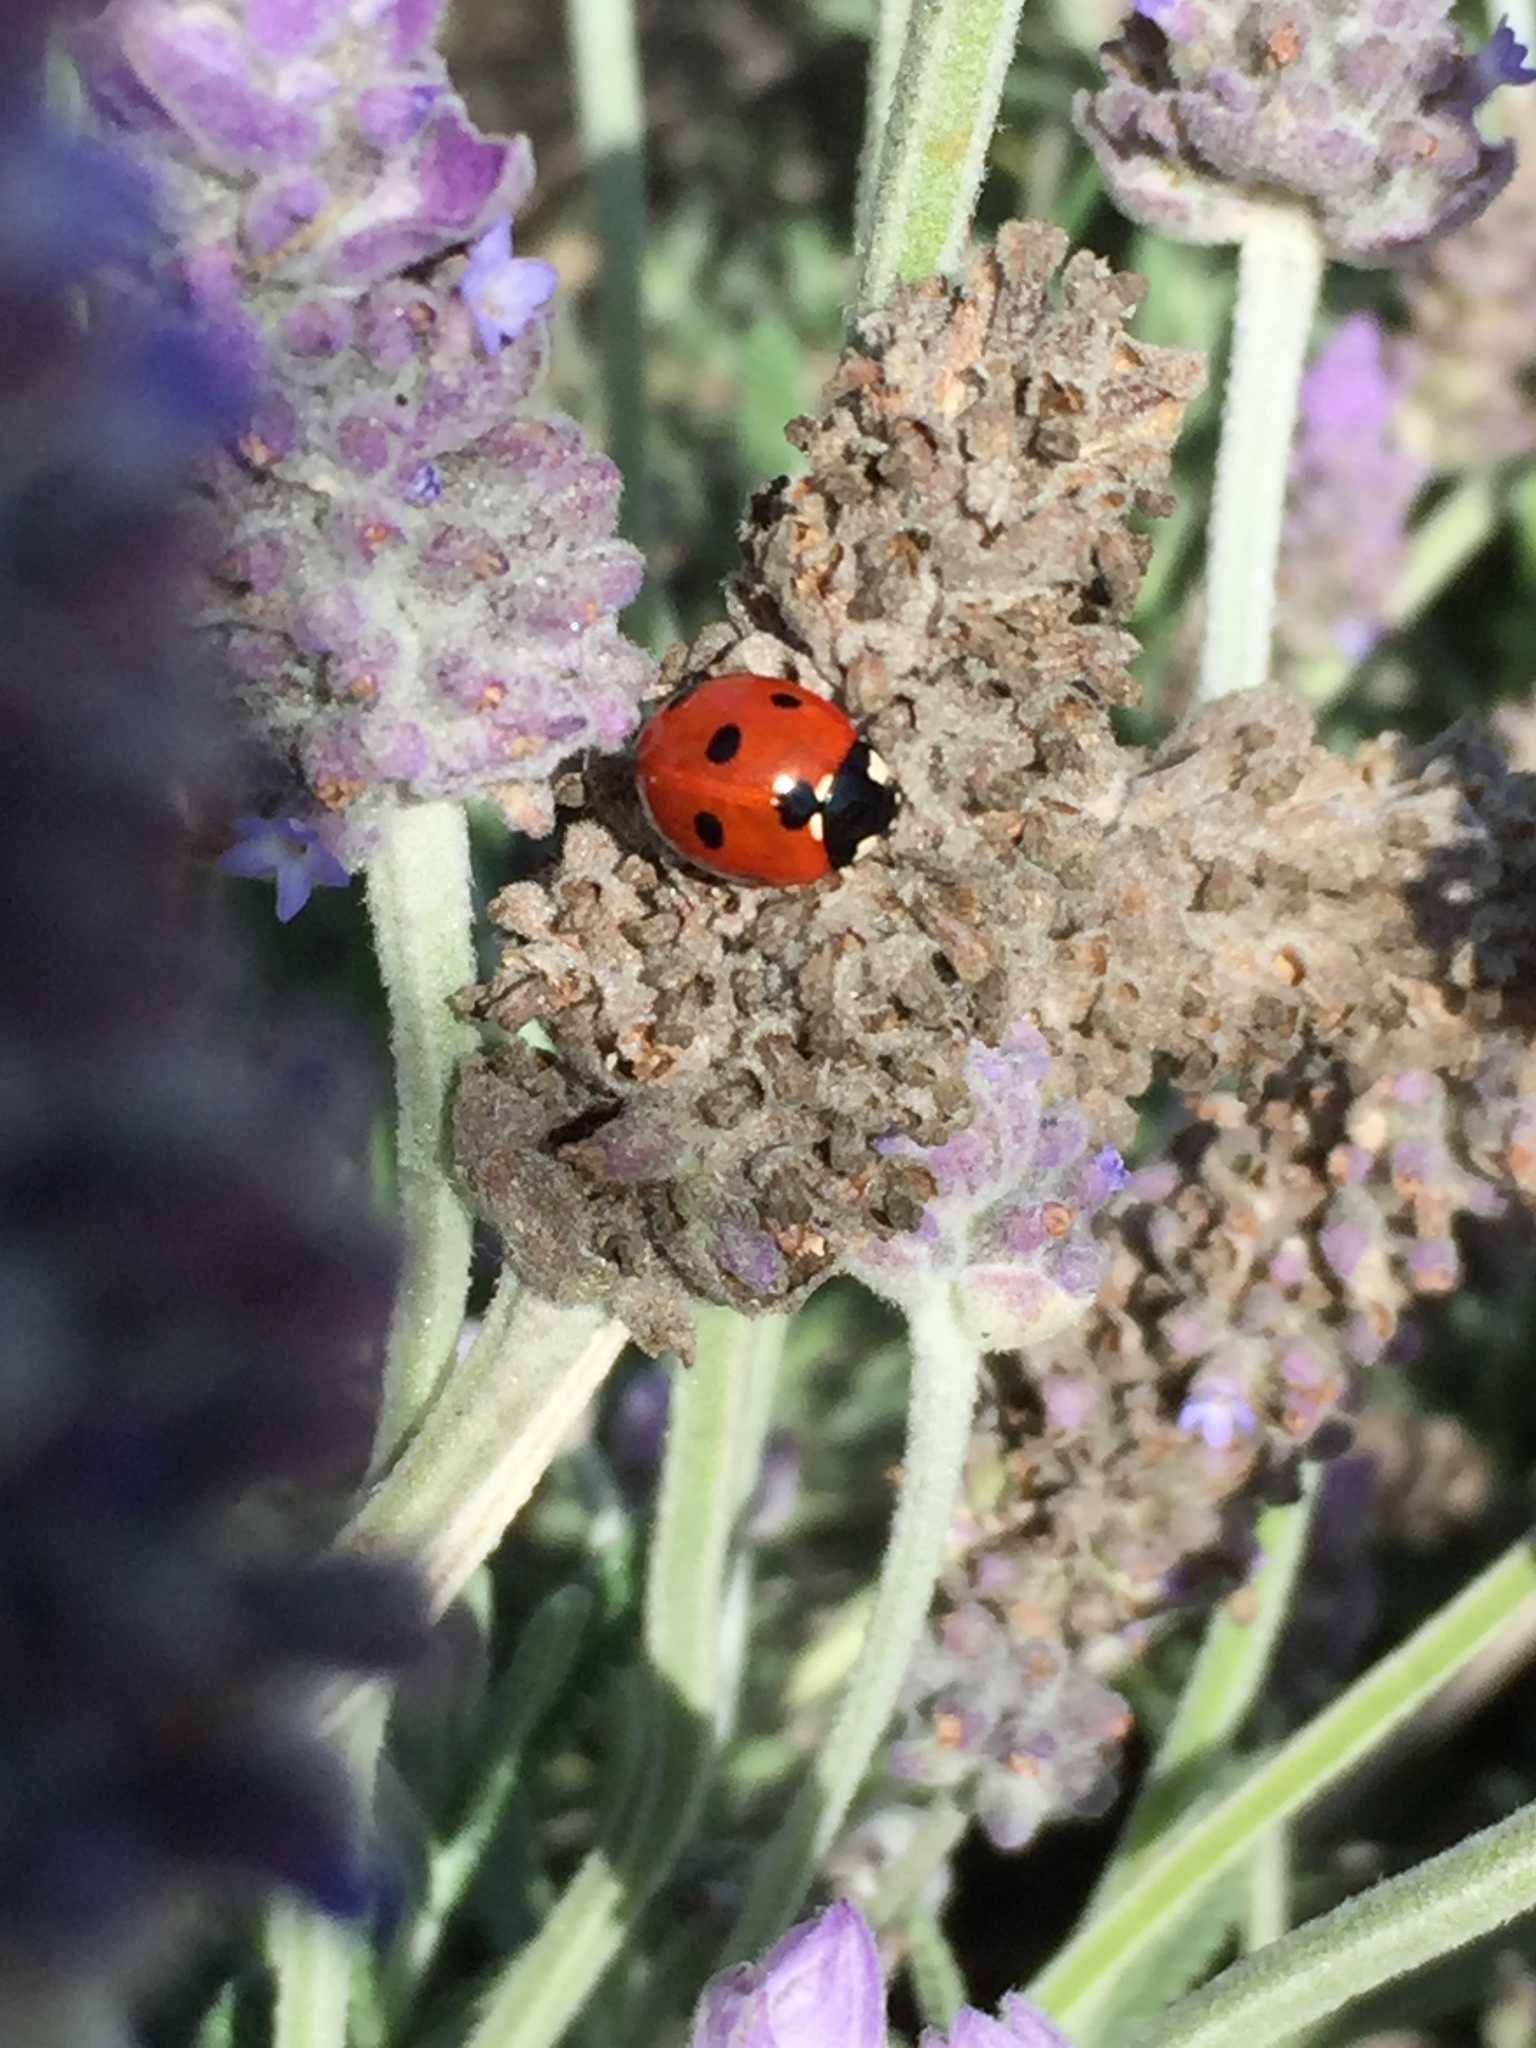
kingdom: Animalia
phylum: Arthropoda
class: Insecta
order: Coleoptera
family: Coccinellidae
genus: Coccinella
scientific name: Coccinella septempunctata
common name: Sevenspotted lady beetle
